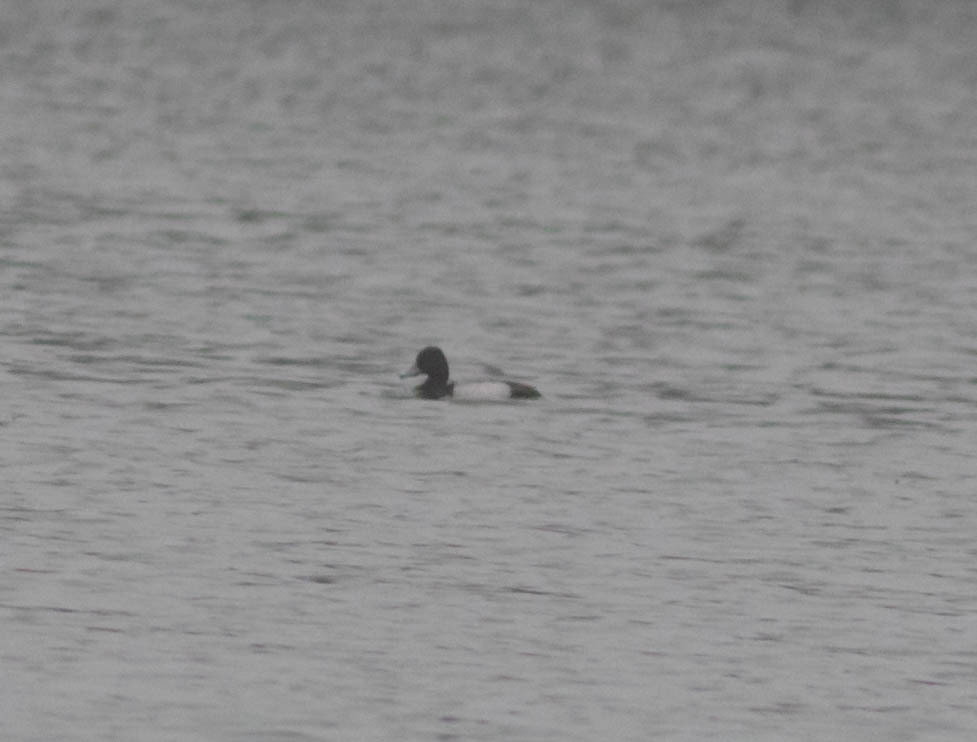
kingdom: Animalia
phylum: Chordata
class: Aves
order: Anseriformes
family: Anatidae
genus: Aythya
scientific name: Aythya affinis
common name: Lesser scaup
